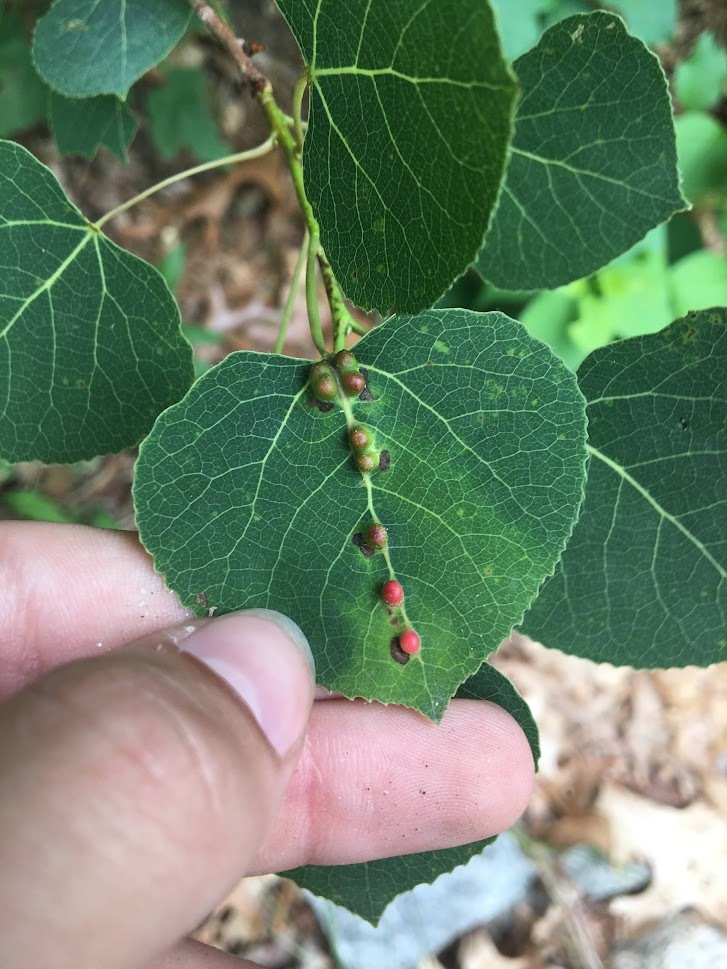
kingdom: Plantae
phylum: Tracheophyta
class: Magnoliopsida
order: Malpighiales
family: Salicaceae
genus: Populus
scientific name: Populus tremuloides
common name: Quaking aspen
